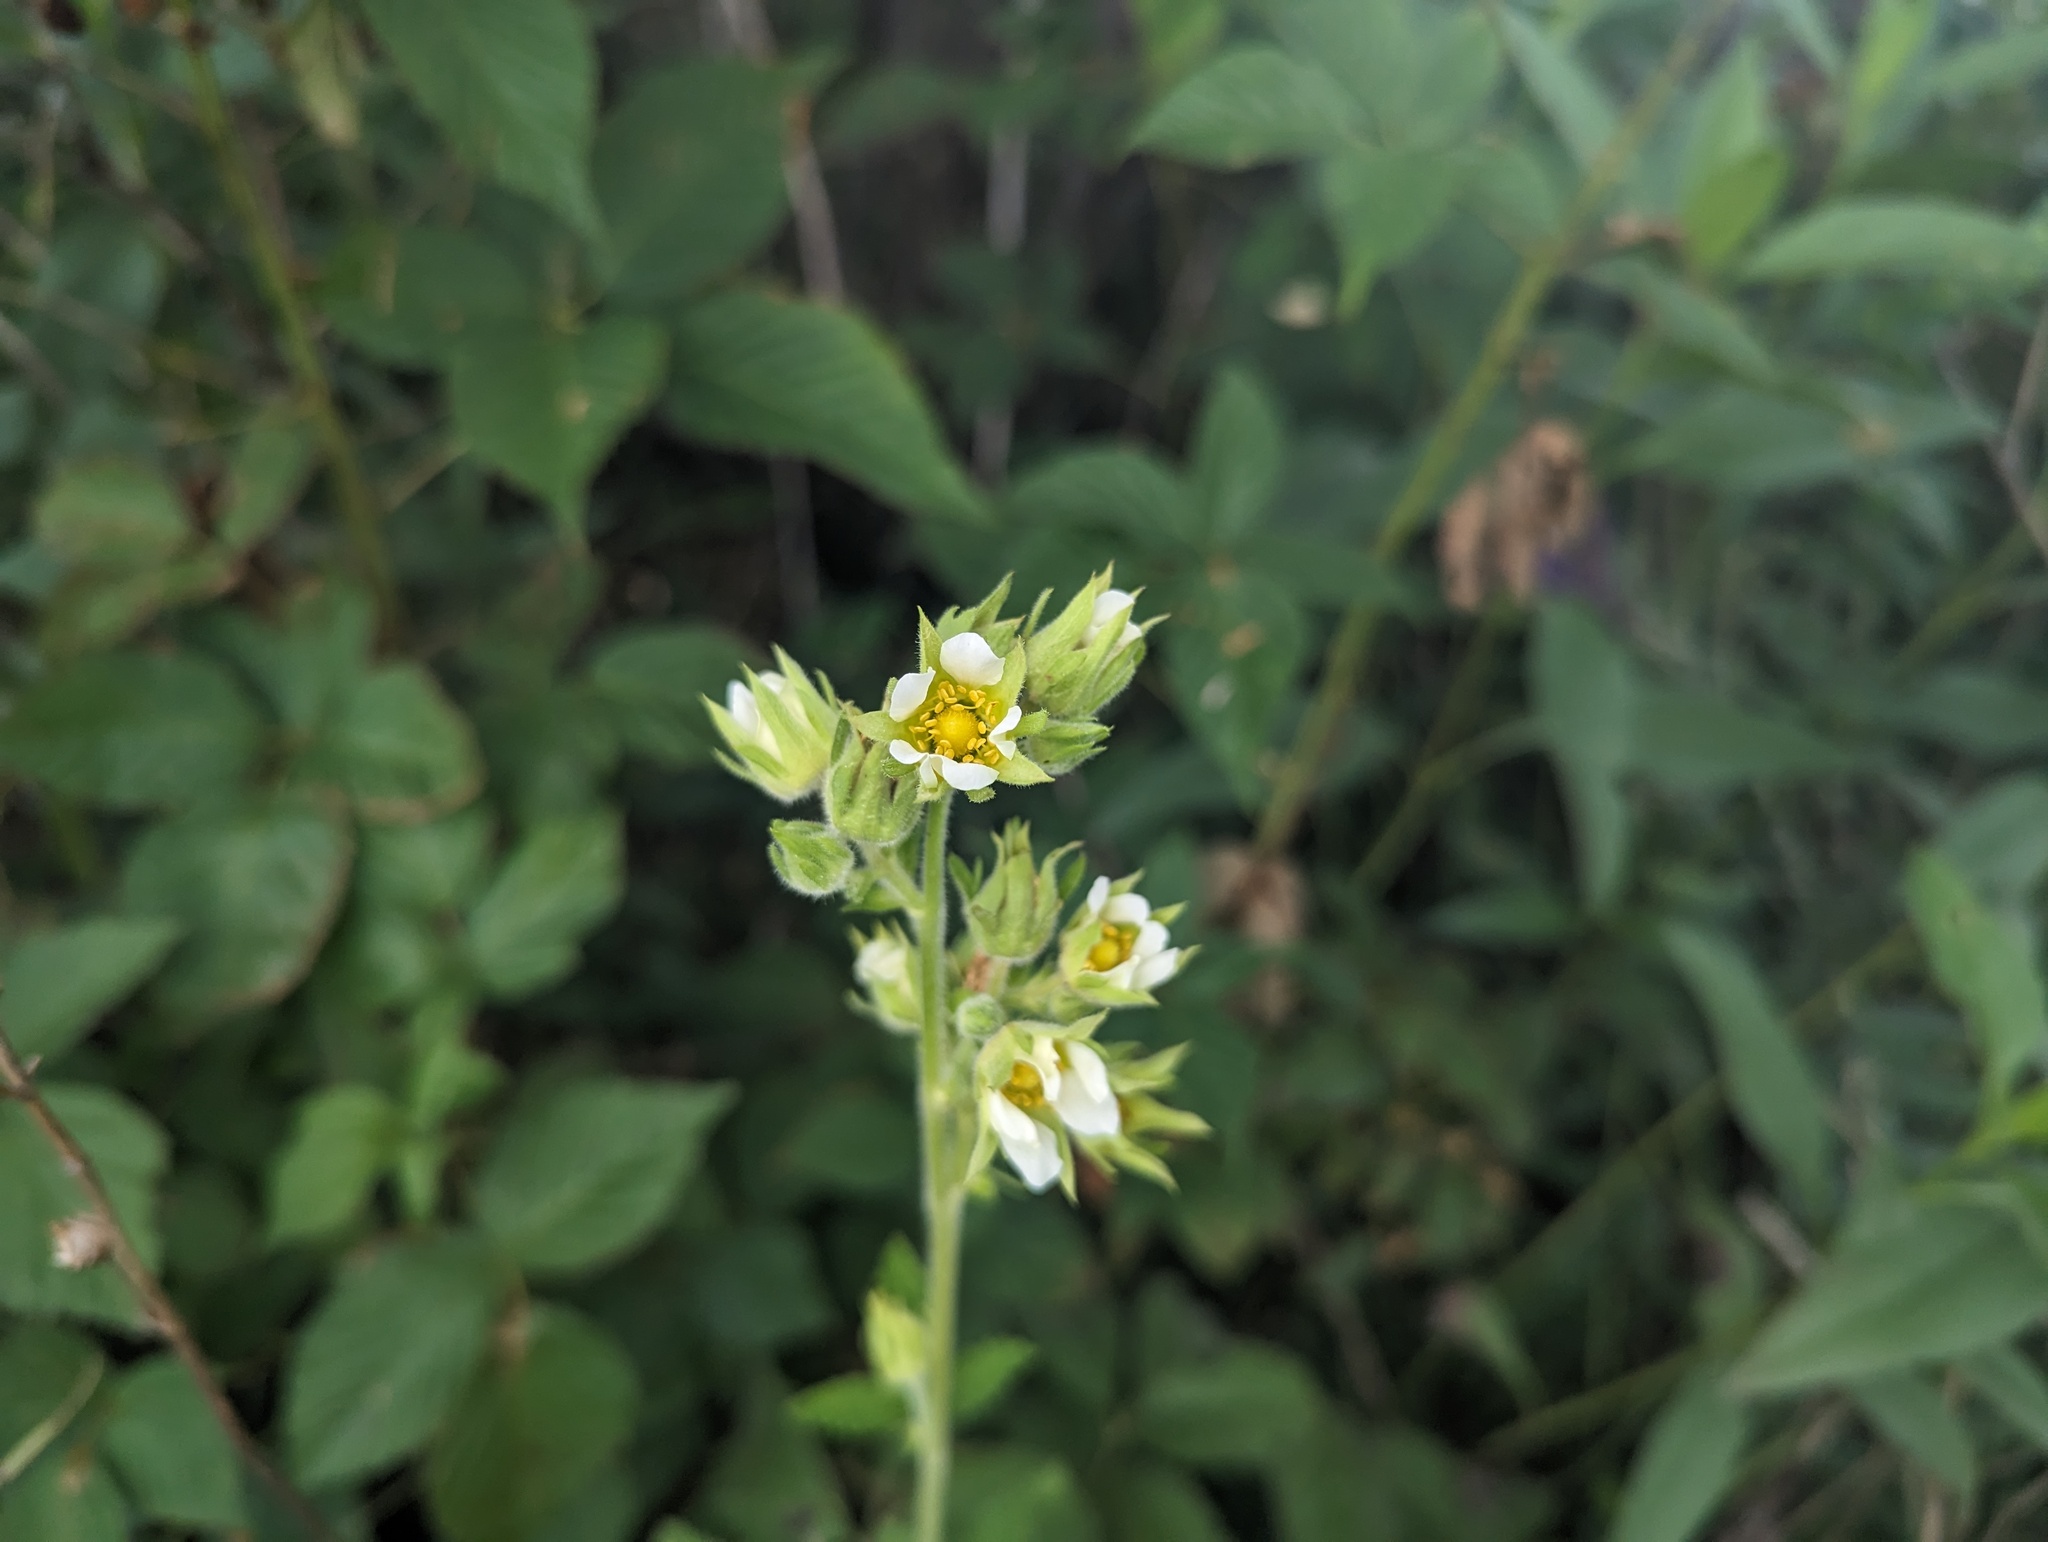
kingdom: Plantae
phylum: Tracheophyta
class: Magnoliopsida
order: Rosales
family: Rosaceae
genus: Drymocallis
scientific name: Drymocallis arguta
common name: Tall cinquefoil
